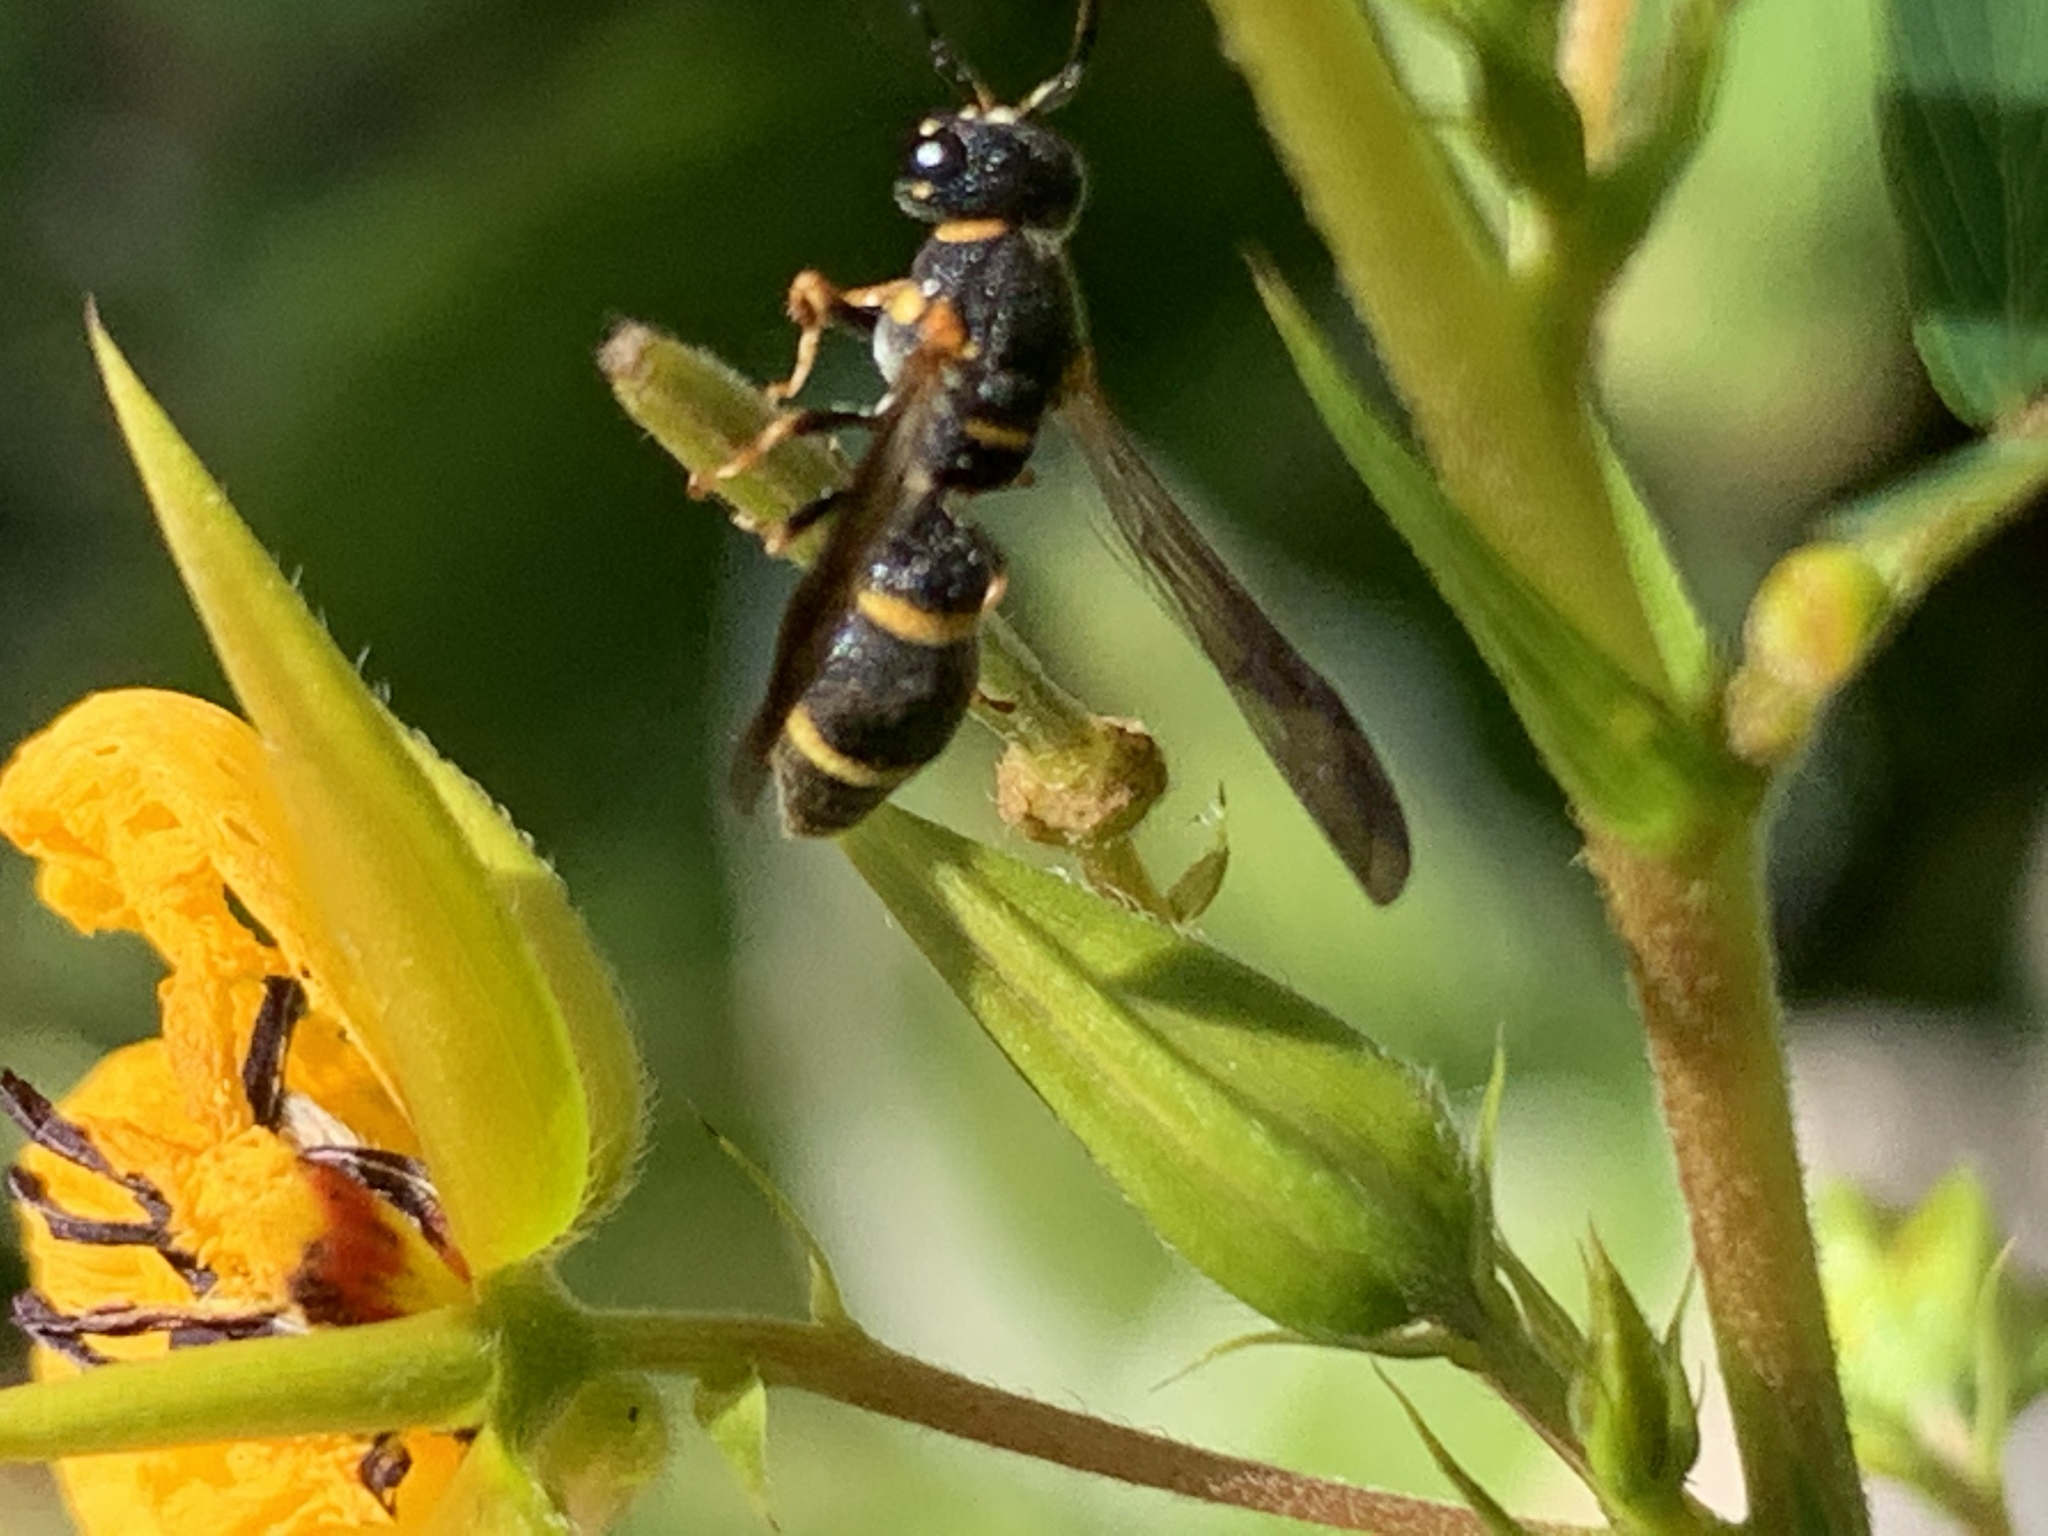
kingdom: Animalia
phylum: Arthropoda
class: Insecta
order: Hymenoptera
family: Eumenidae
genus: Parancistrocerus
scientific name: Parancistrocerus perennis
